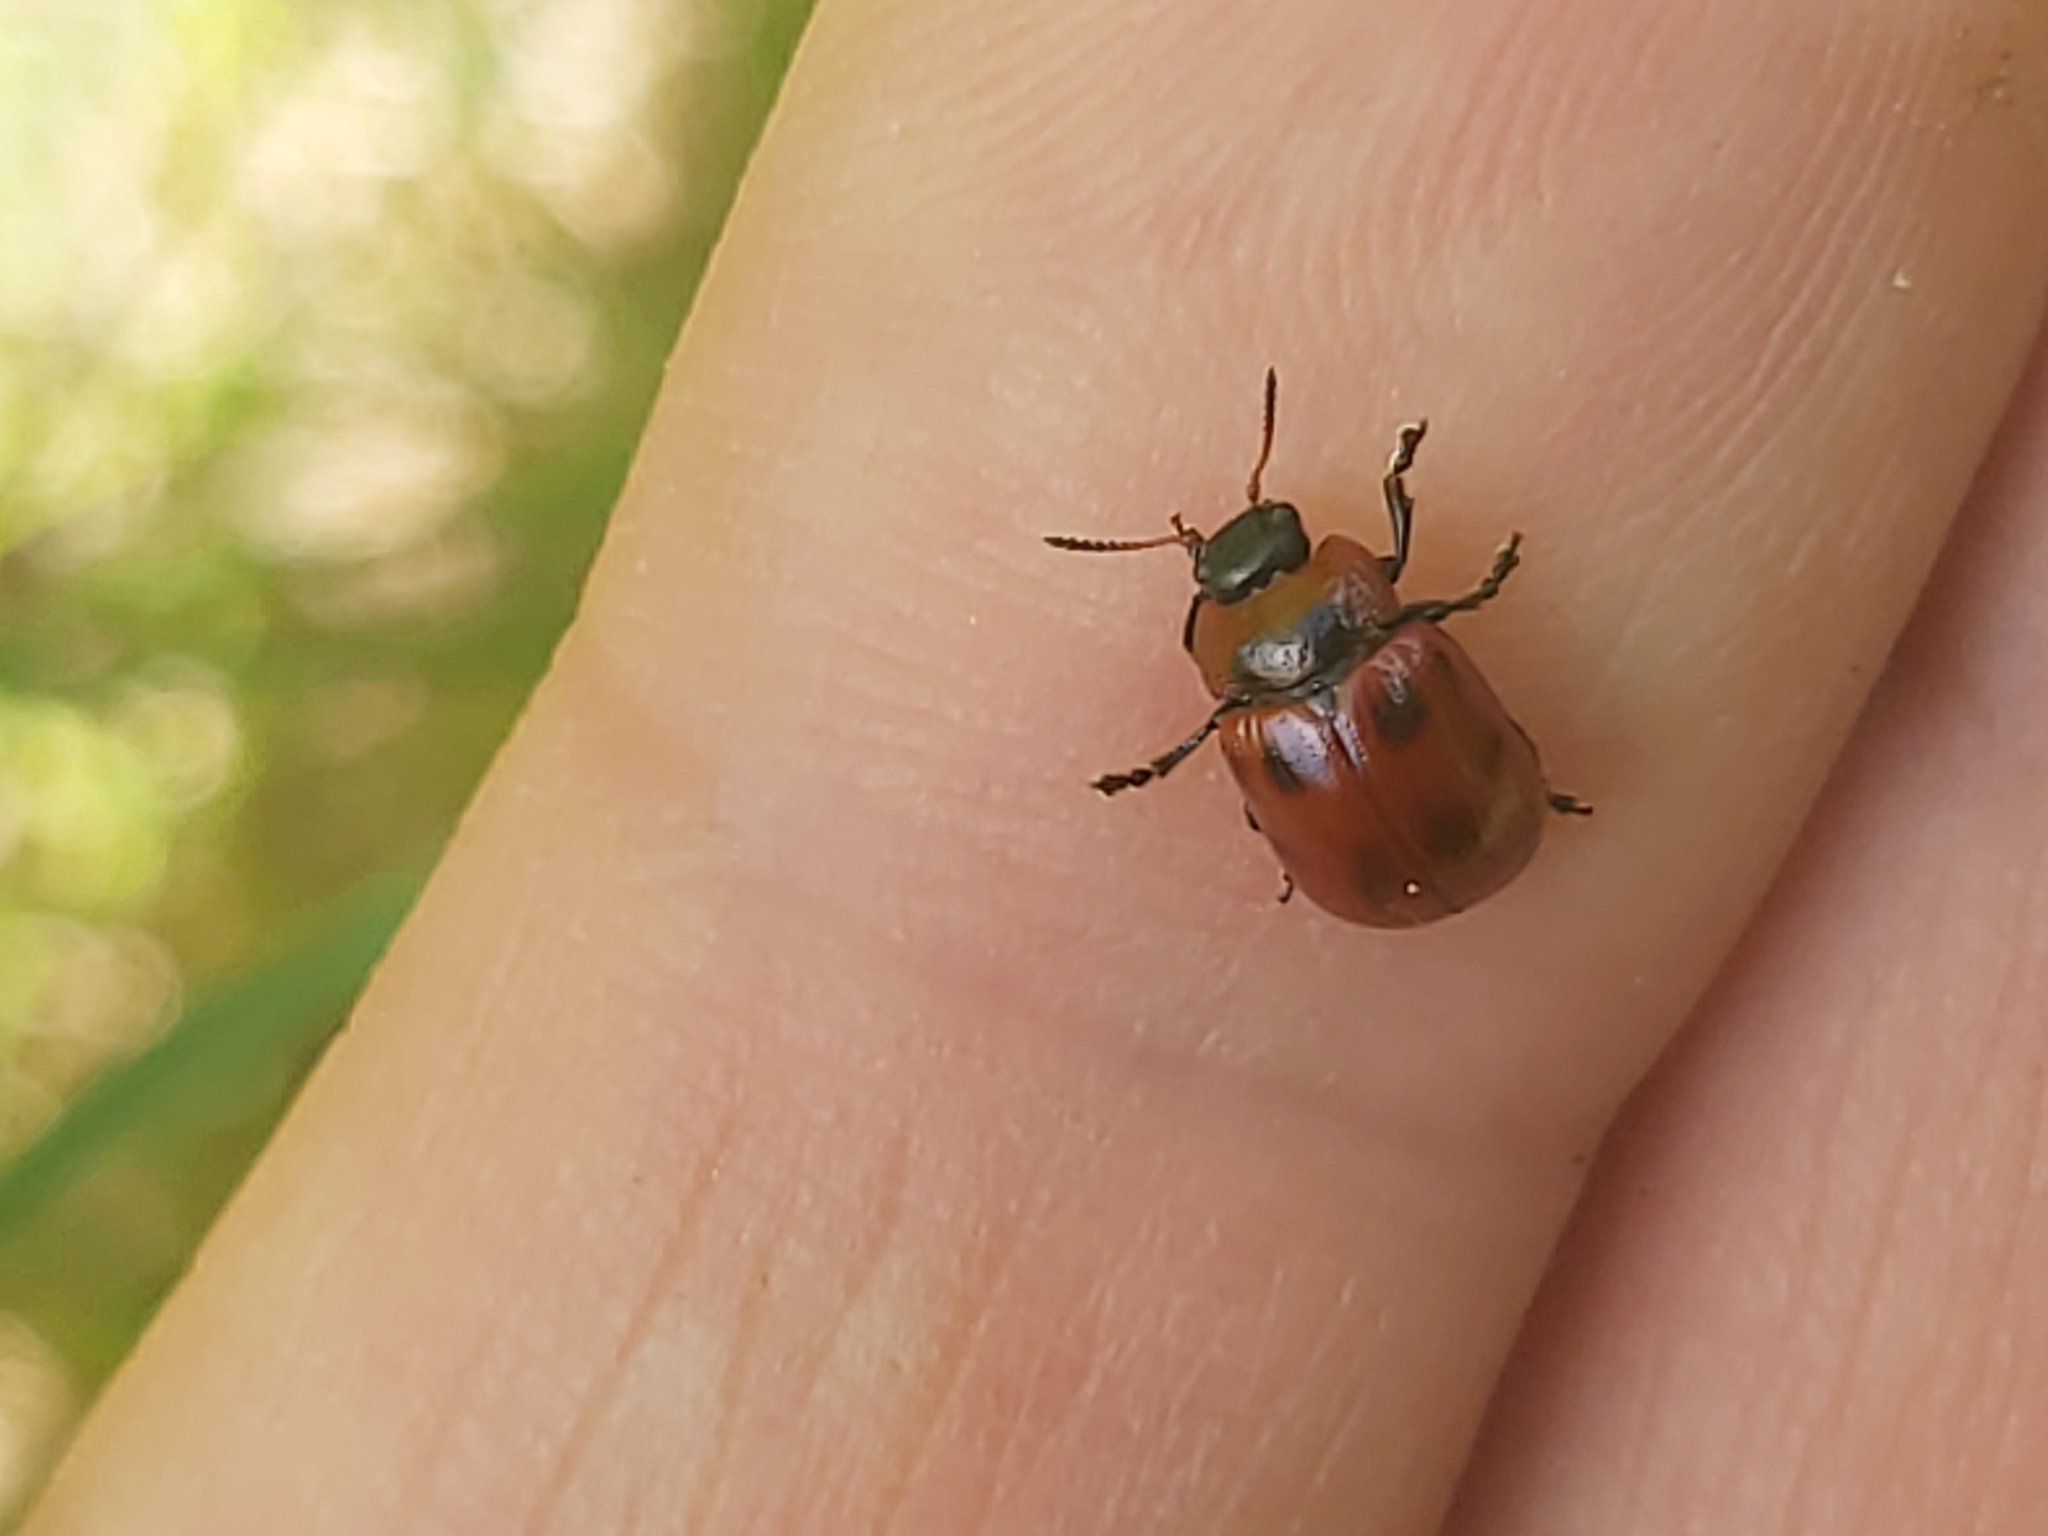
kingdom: Animalia
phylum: Arthropoda
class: Insecta
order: Coleoptera
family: Chrysomelidae
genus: Gonioctena
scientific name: Gonioctena viminalis
